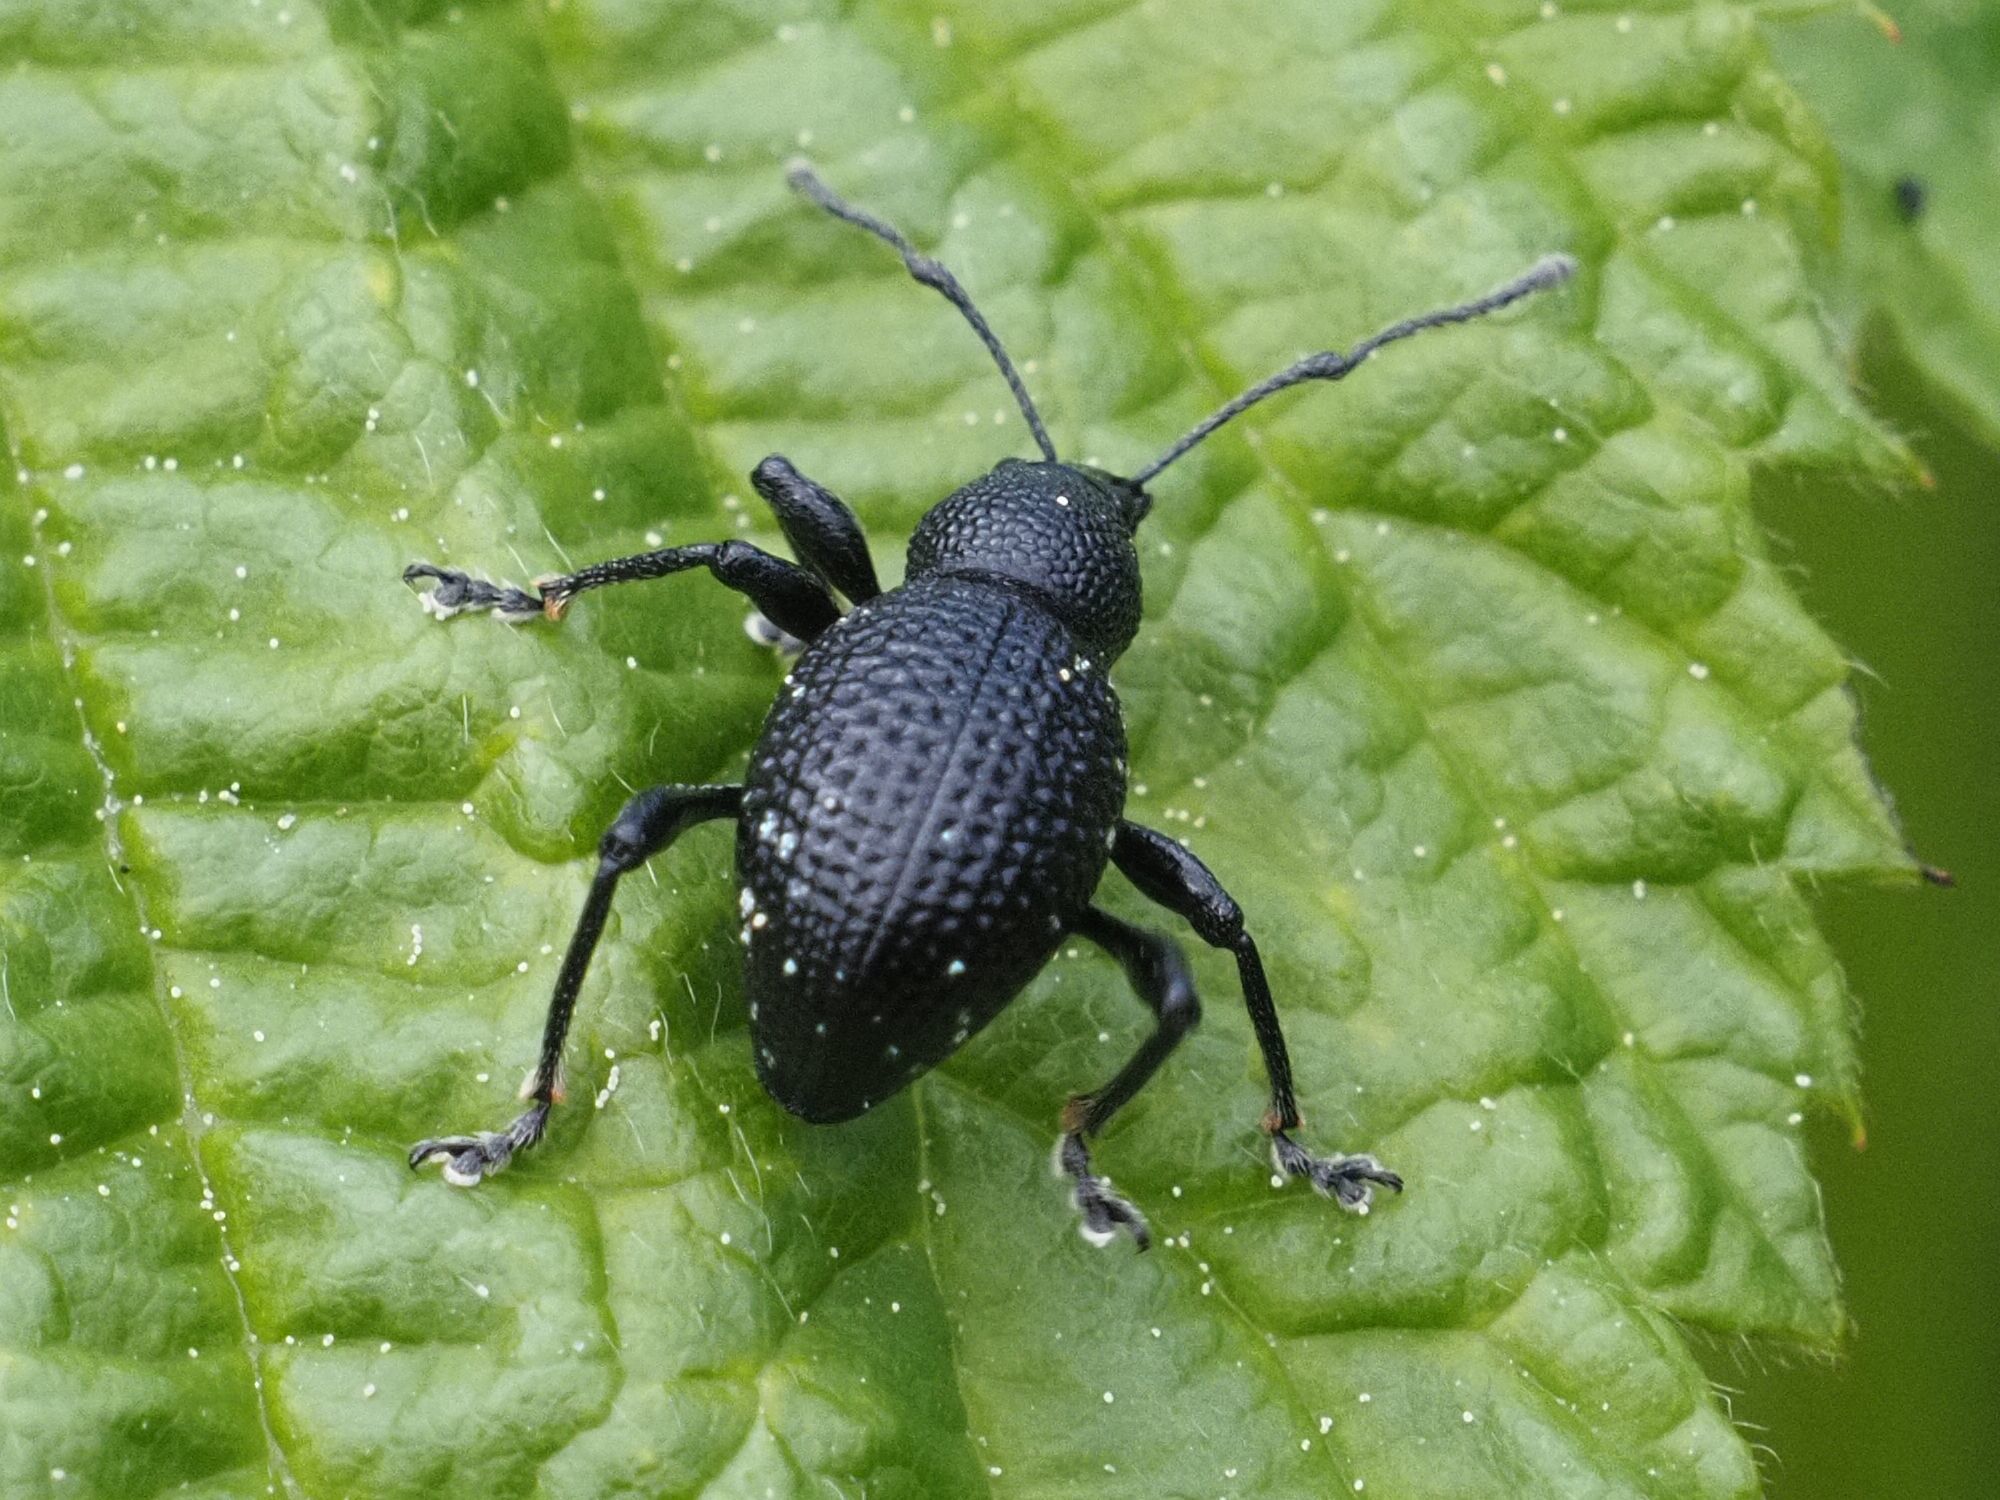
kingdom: Animalia
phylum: Arthropoda
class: Insecta
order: Coleoptera
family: Curculionidae
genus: Otiorhynchus
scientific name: Otiorhynchus gemmatus
